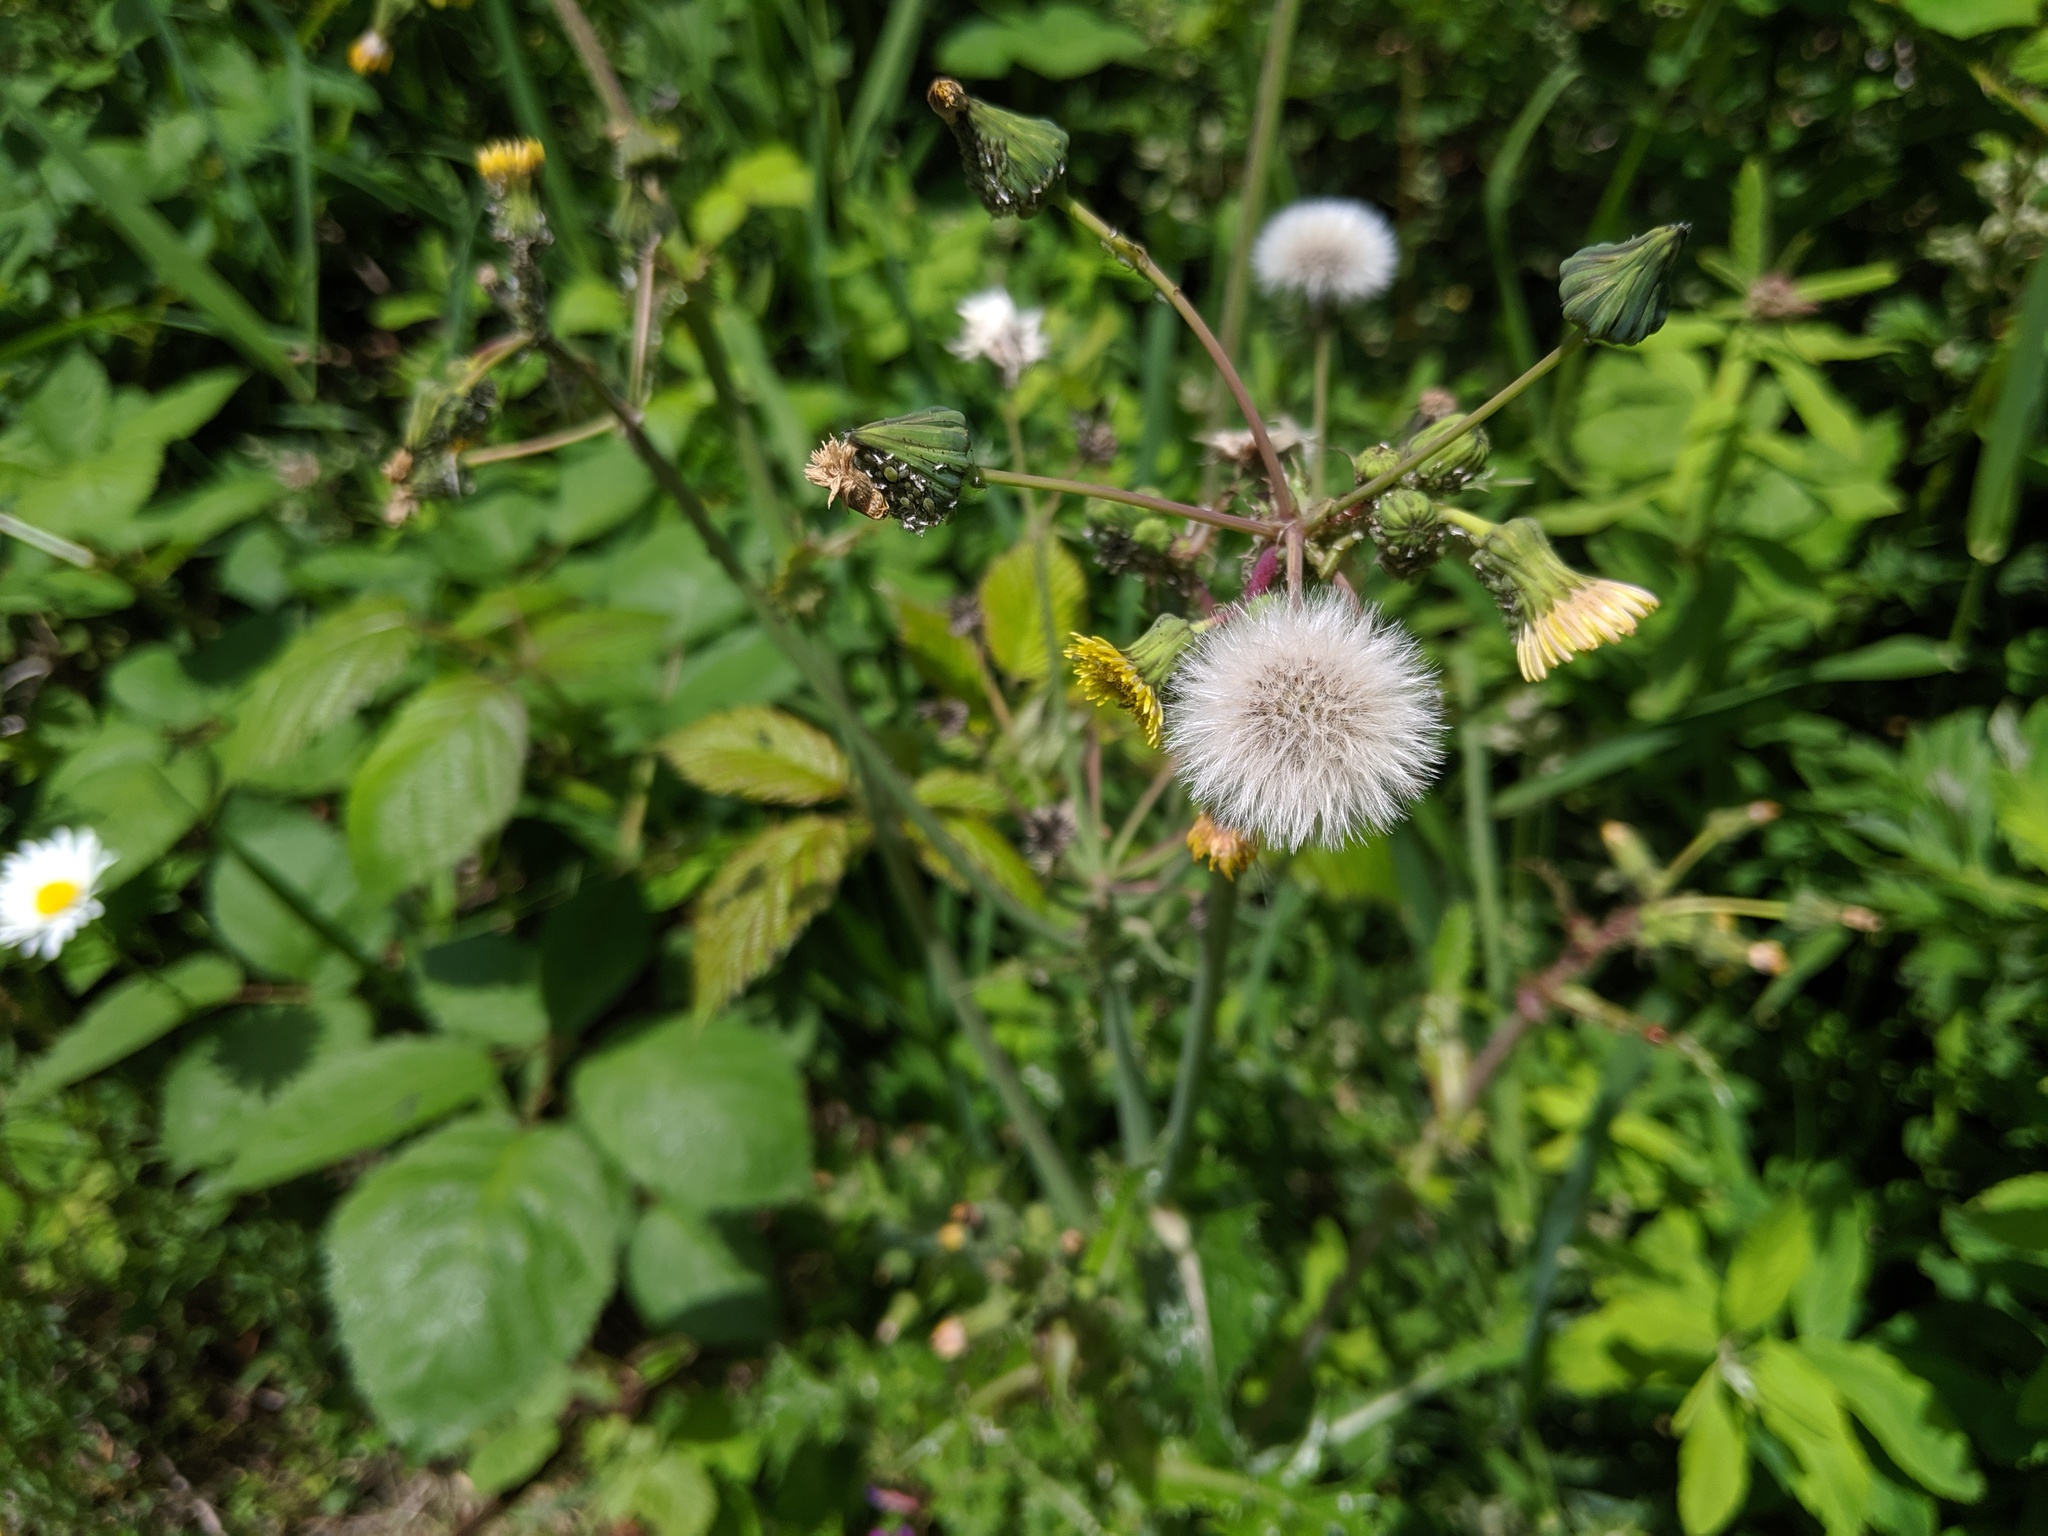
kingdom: Plantae
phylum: Tracheophyta
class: Magnoliopsida
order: Asterales
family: Asteraceae
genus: Sonchus
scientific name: Sonchus asper
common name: Prickly sow-thistle
